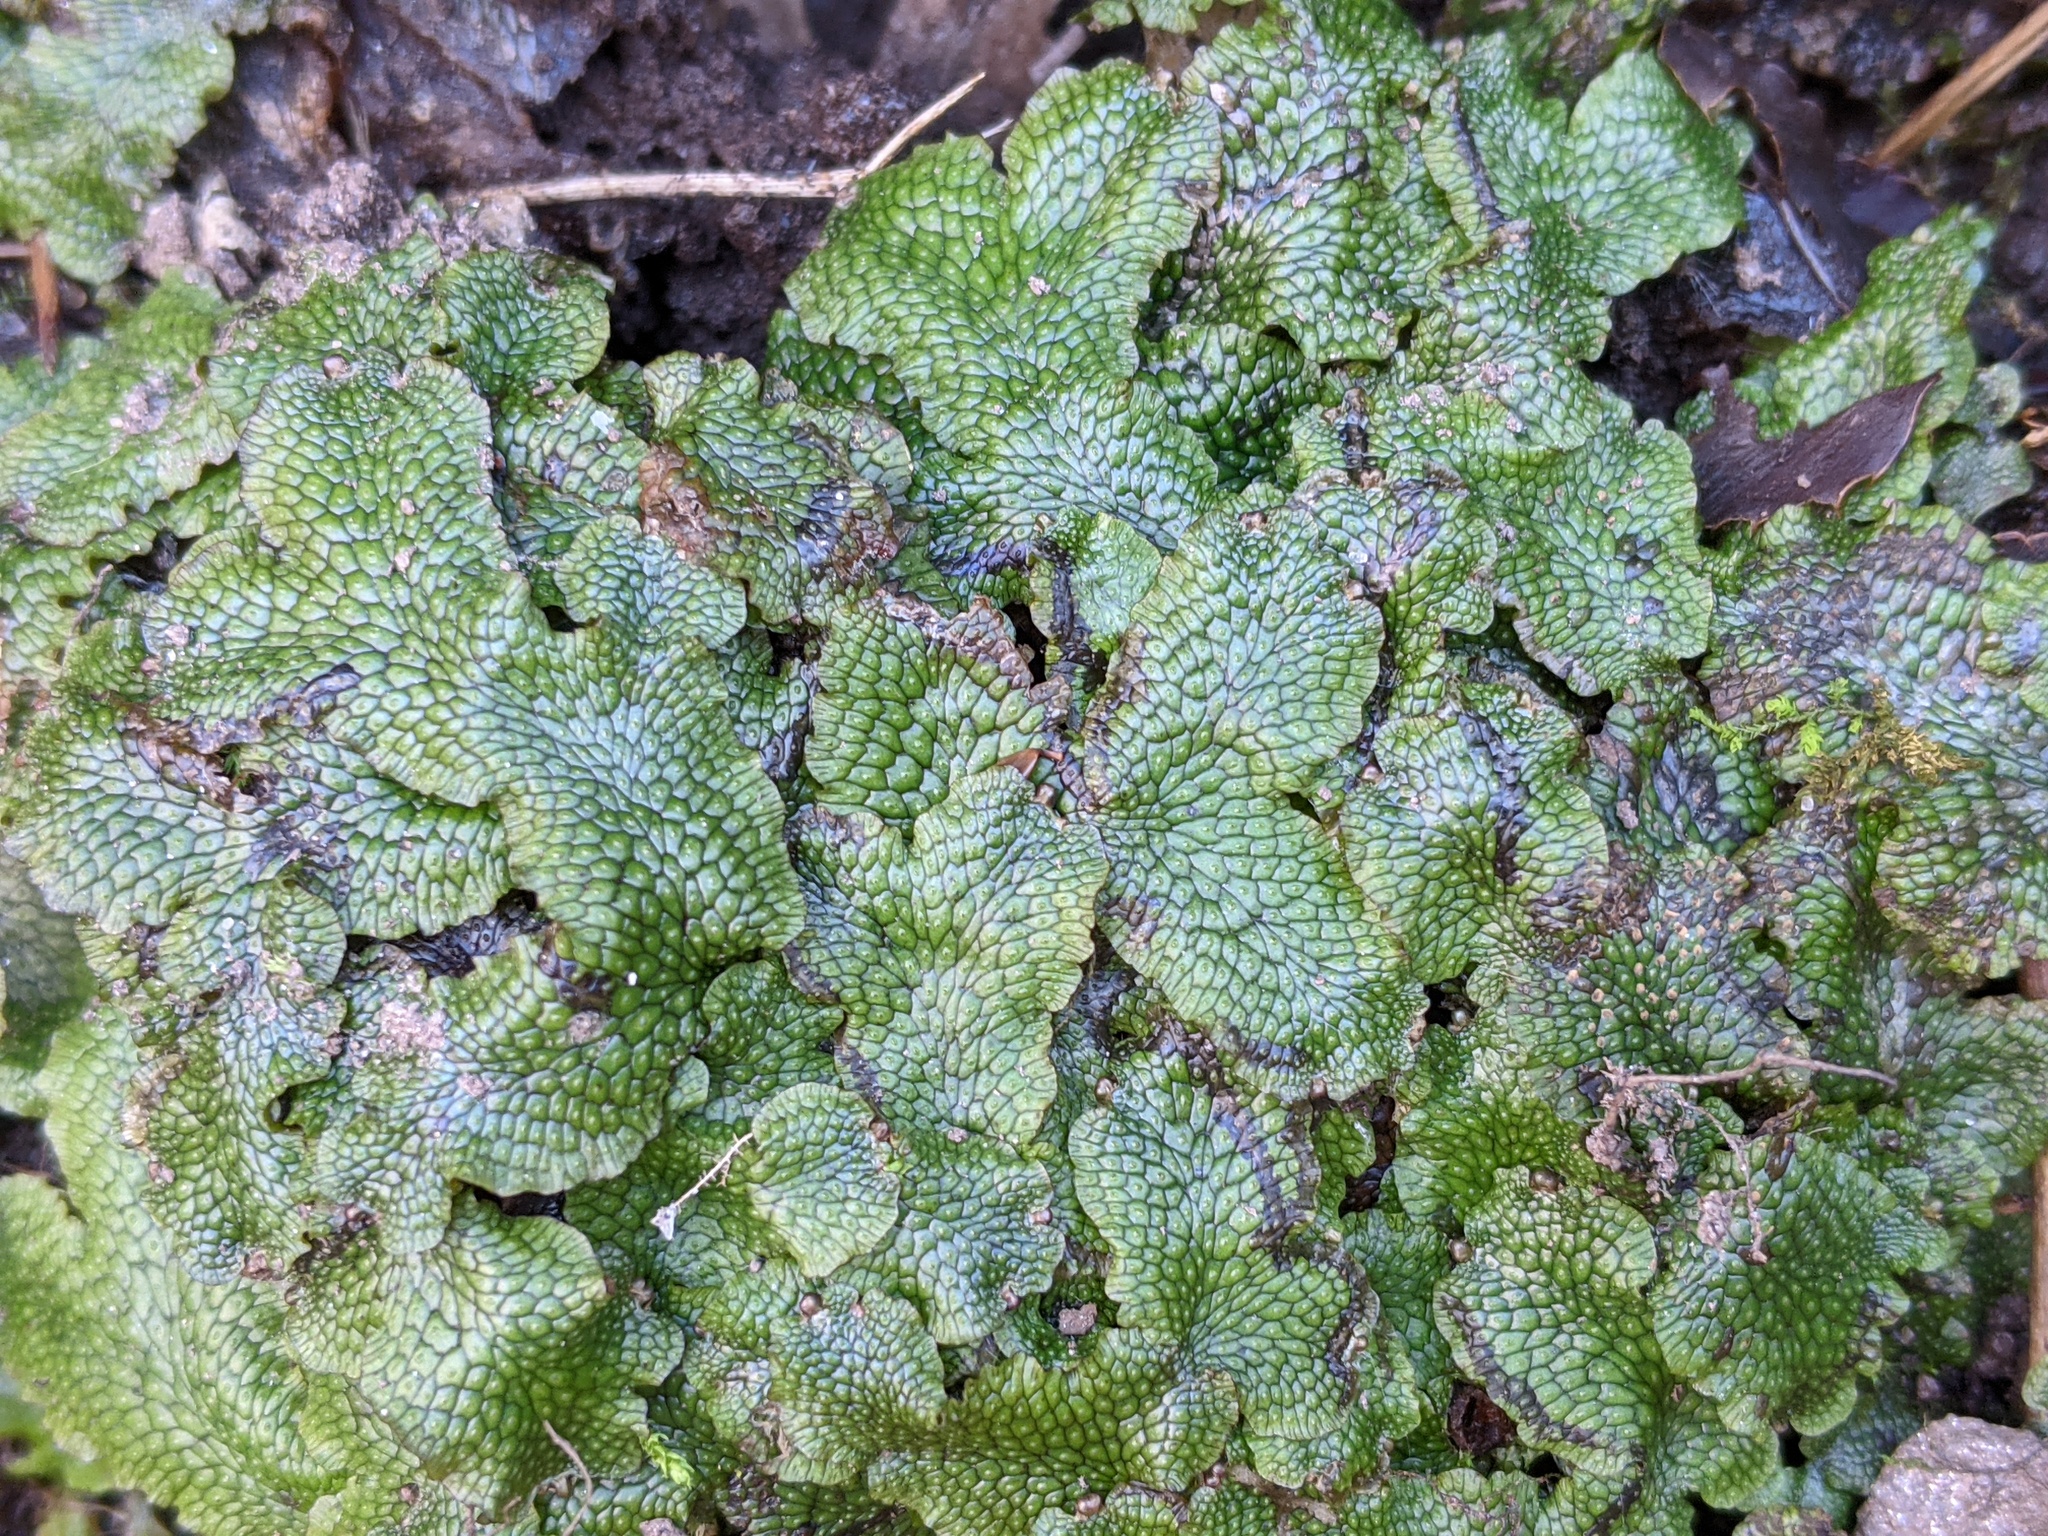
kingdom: Plantae
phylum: Marchantiophyta
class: Marchantiopsida
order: Marchantiales
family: Conocephalaceae
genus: Conocephalum
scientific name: Conocephalum salebrosum
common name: Cat-tongue liverwort
